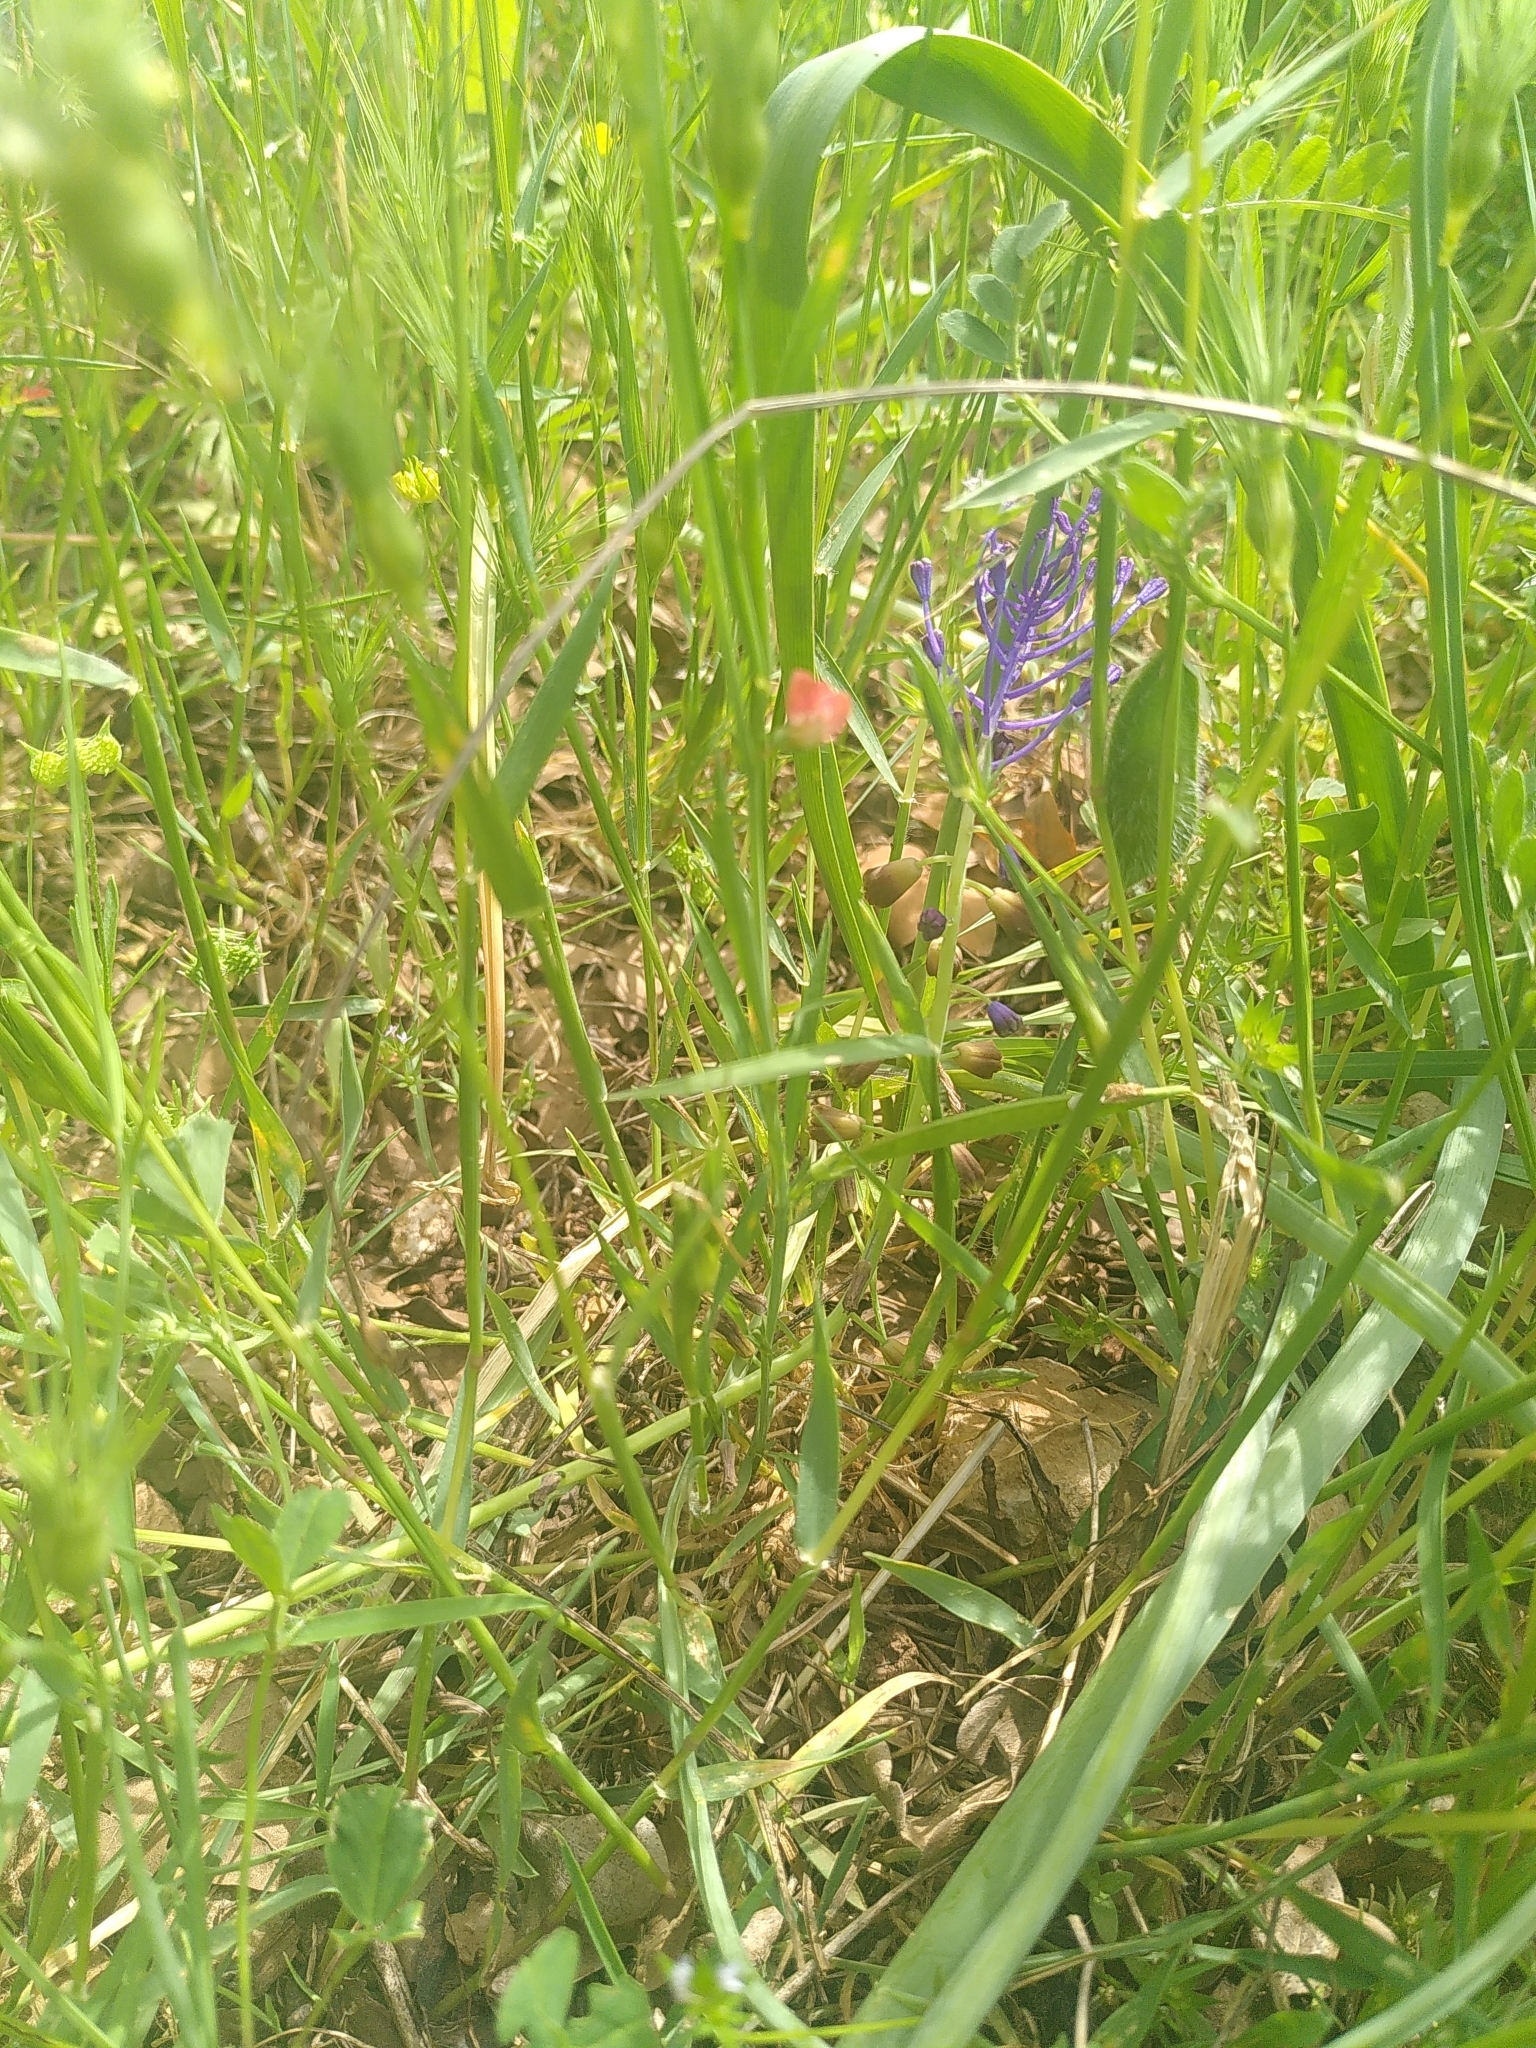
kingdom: Plantae
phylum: Tracheophyta
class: Magnoliopsida
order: Fabales
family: Fabaceae
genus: Lathyrus
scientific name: Lathyrus cicera
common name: Red vetchling
